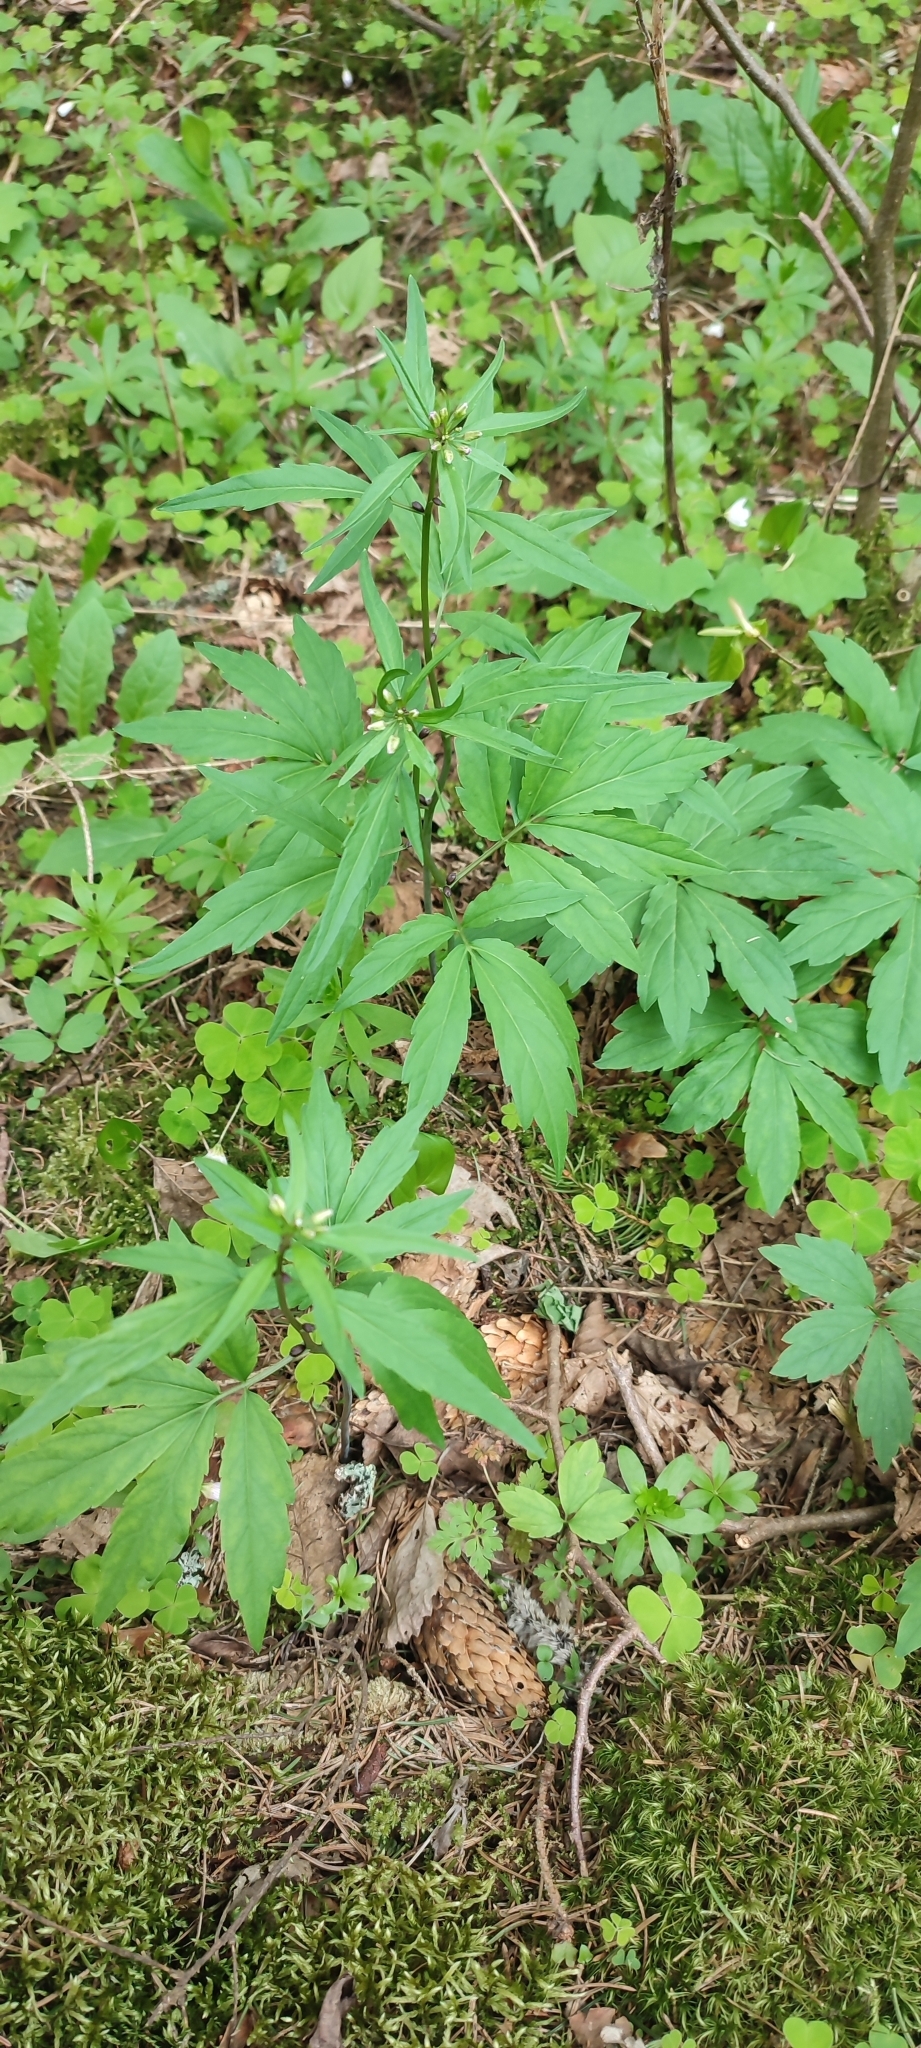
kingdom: Plantae
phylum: Tracheophyta
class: Magnoliopsida
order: Brassicales
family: Brassicaceae
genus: Cardamine
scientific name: Cardamine bulbifera
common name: Coralroot bittercress
